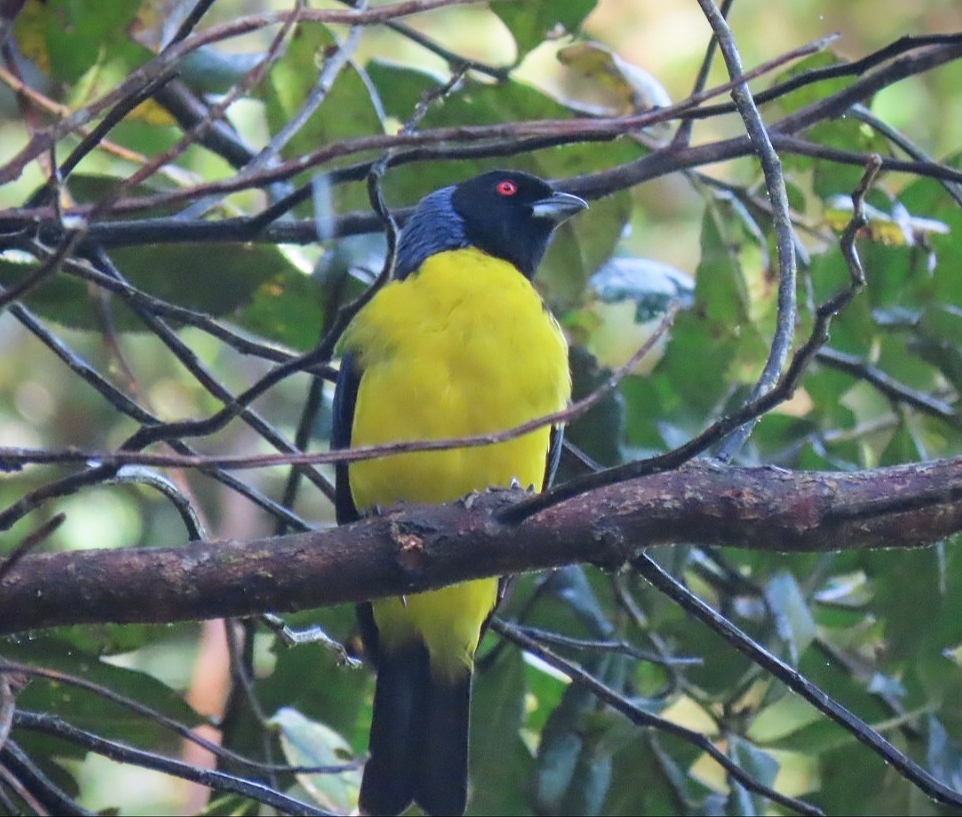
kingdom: Animalia
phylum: Chordata
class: Aves
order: Passeriformes
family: Thraupidae
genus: Buthraupis
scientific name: Buthraupis montana
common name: Hooded mountain tanager
